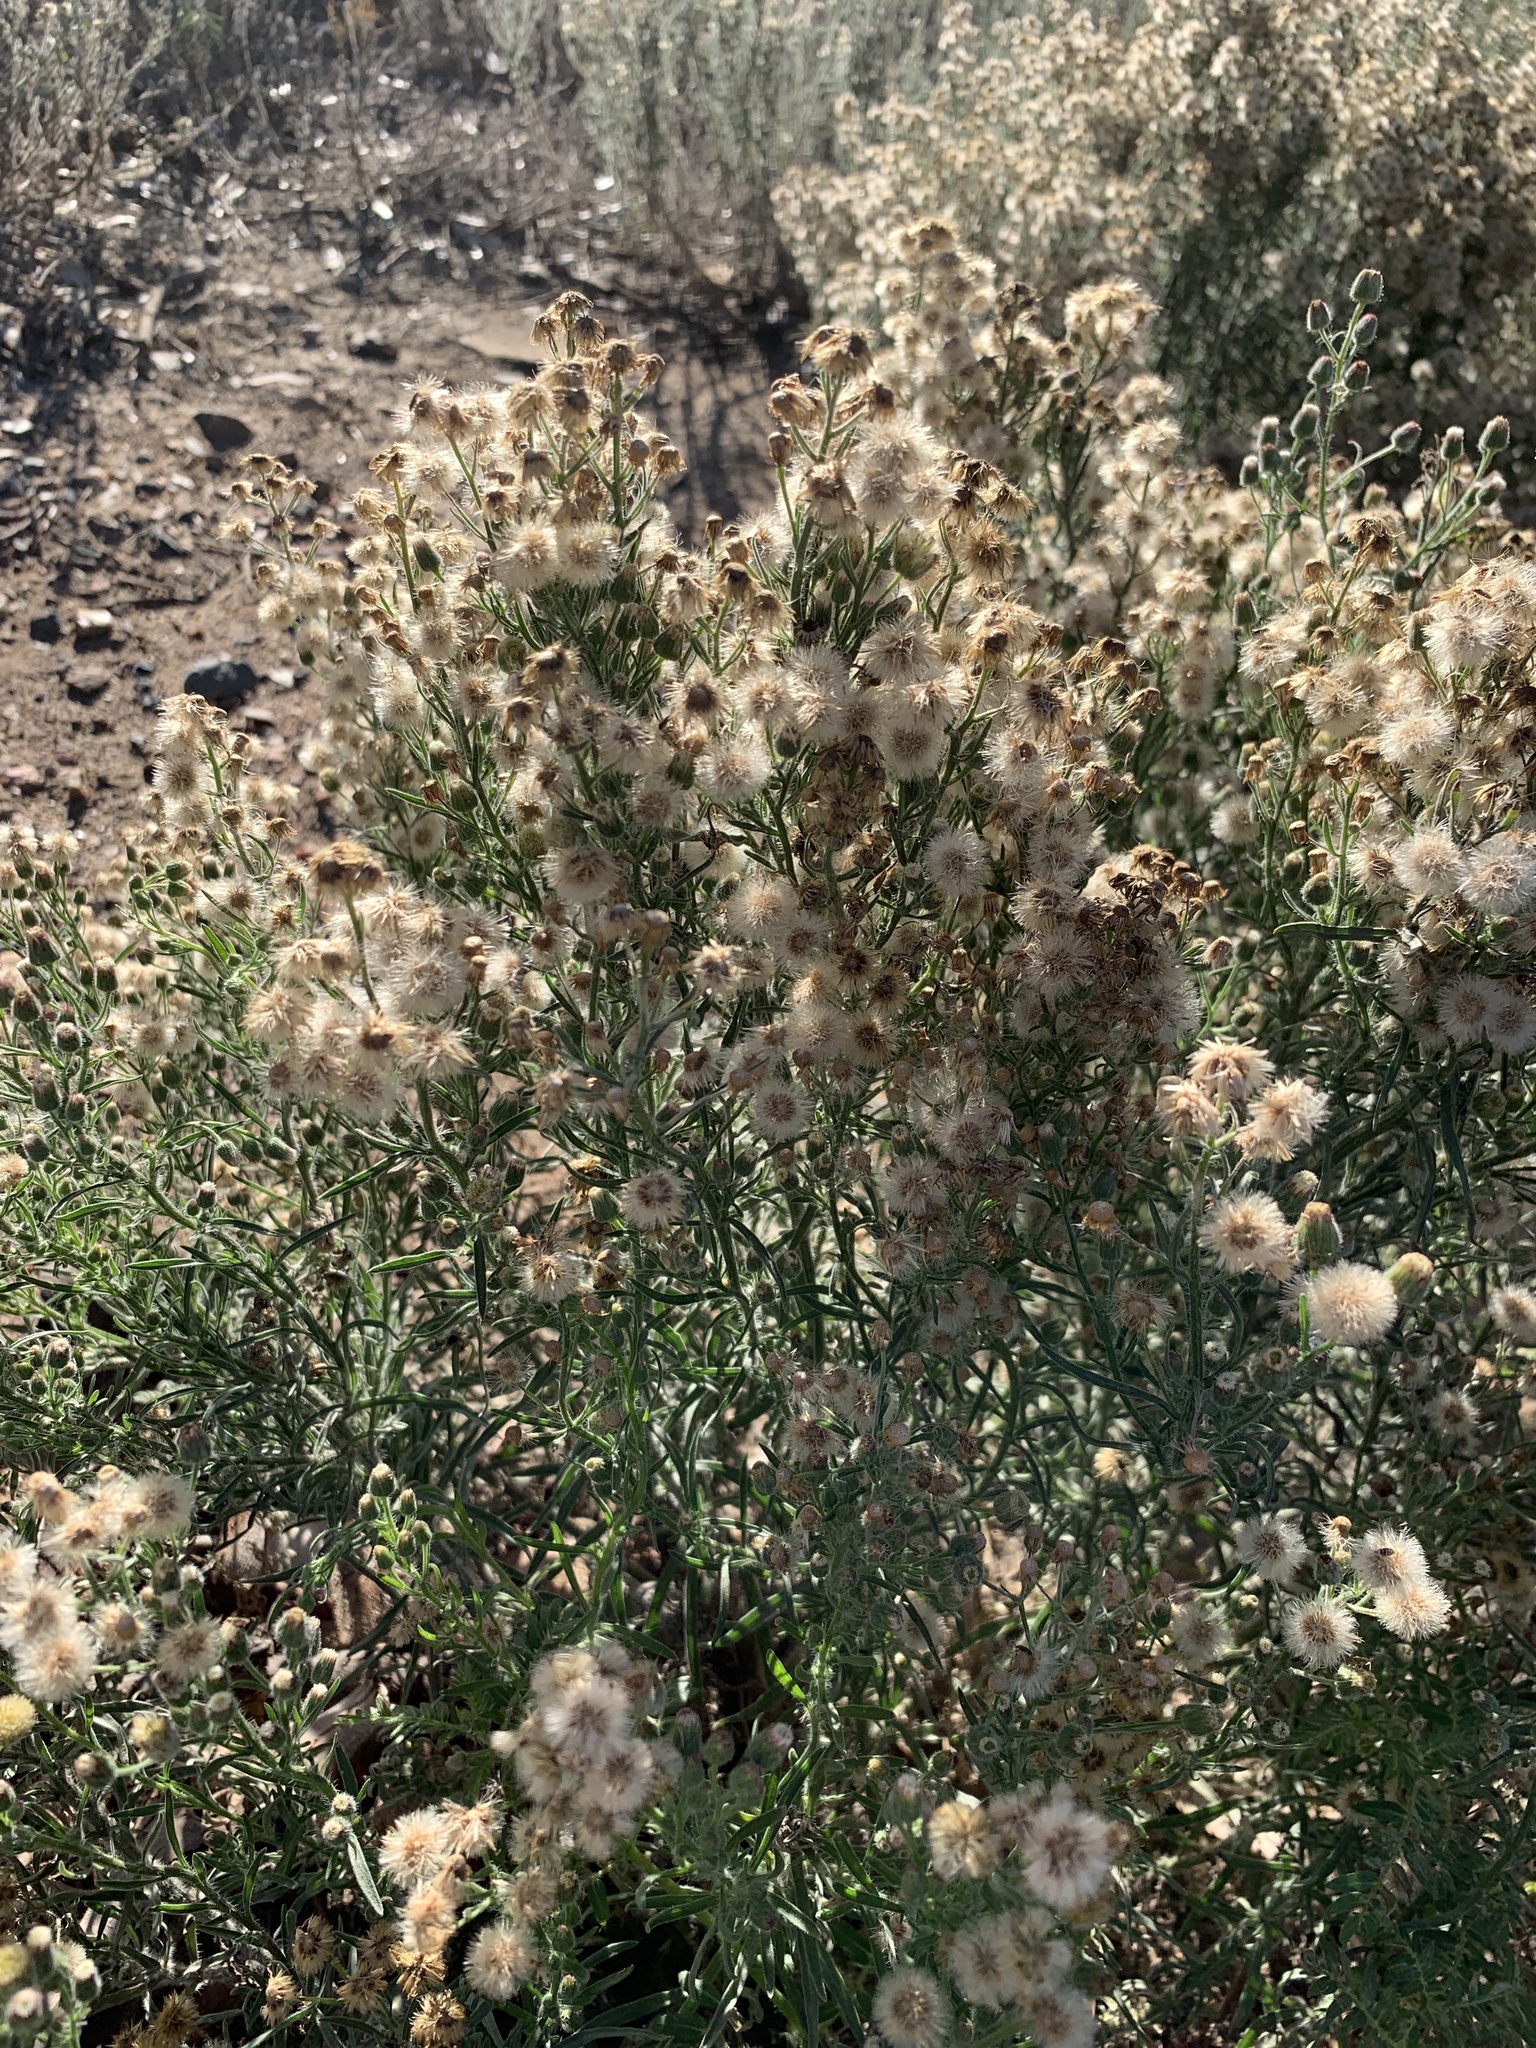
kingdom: Plantae
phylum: Tracheophyta
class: Magnoliopsida
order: Asterales
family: Asteraceae
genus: Erigeron
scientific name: Erigeron bonariensis
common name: Argentine fleabane
